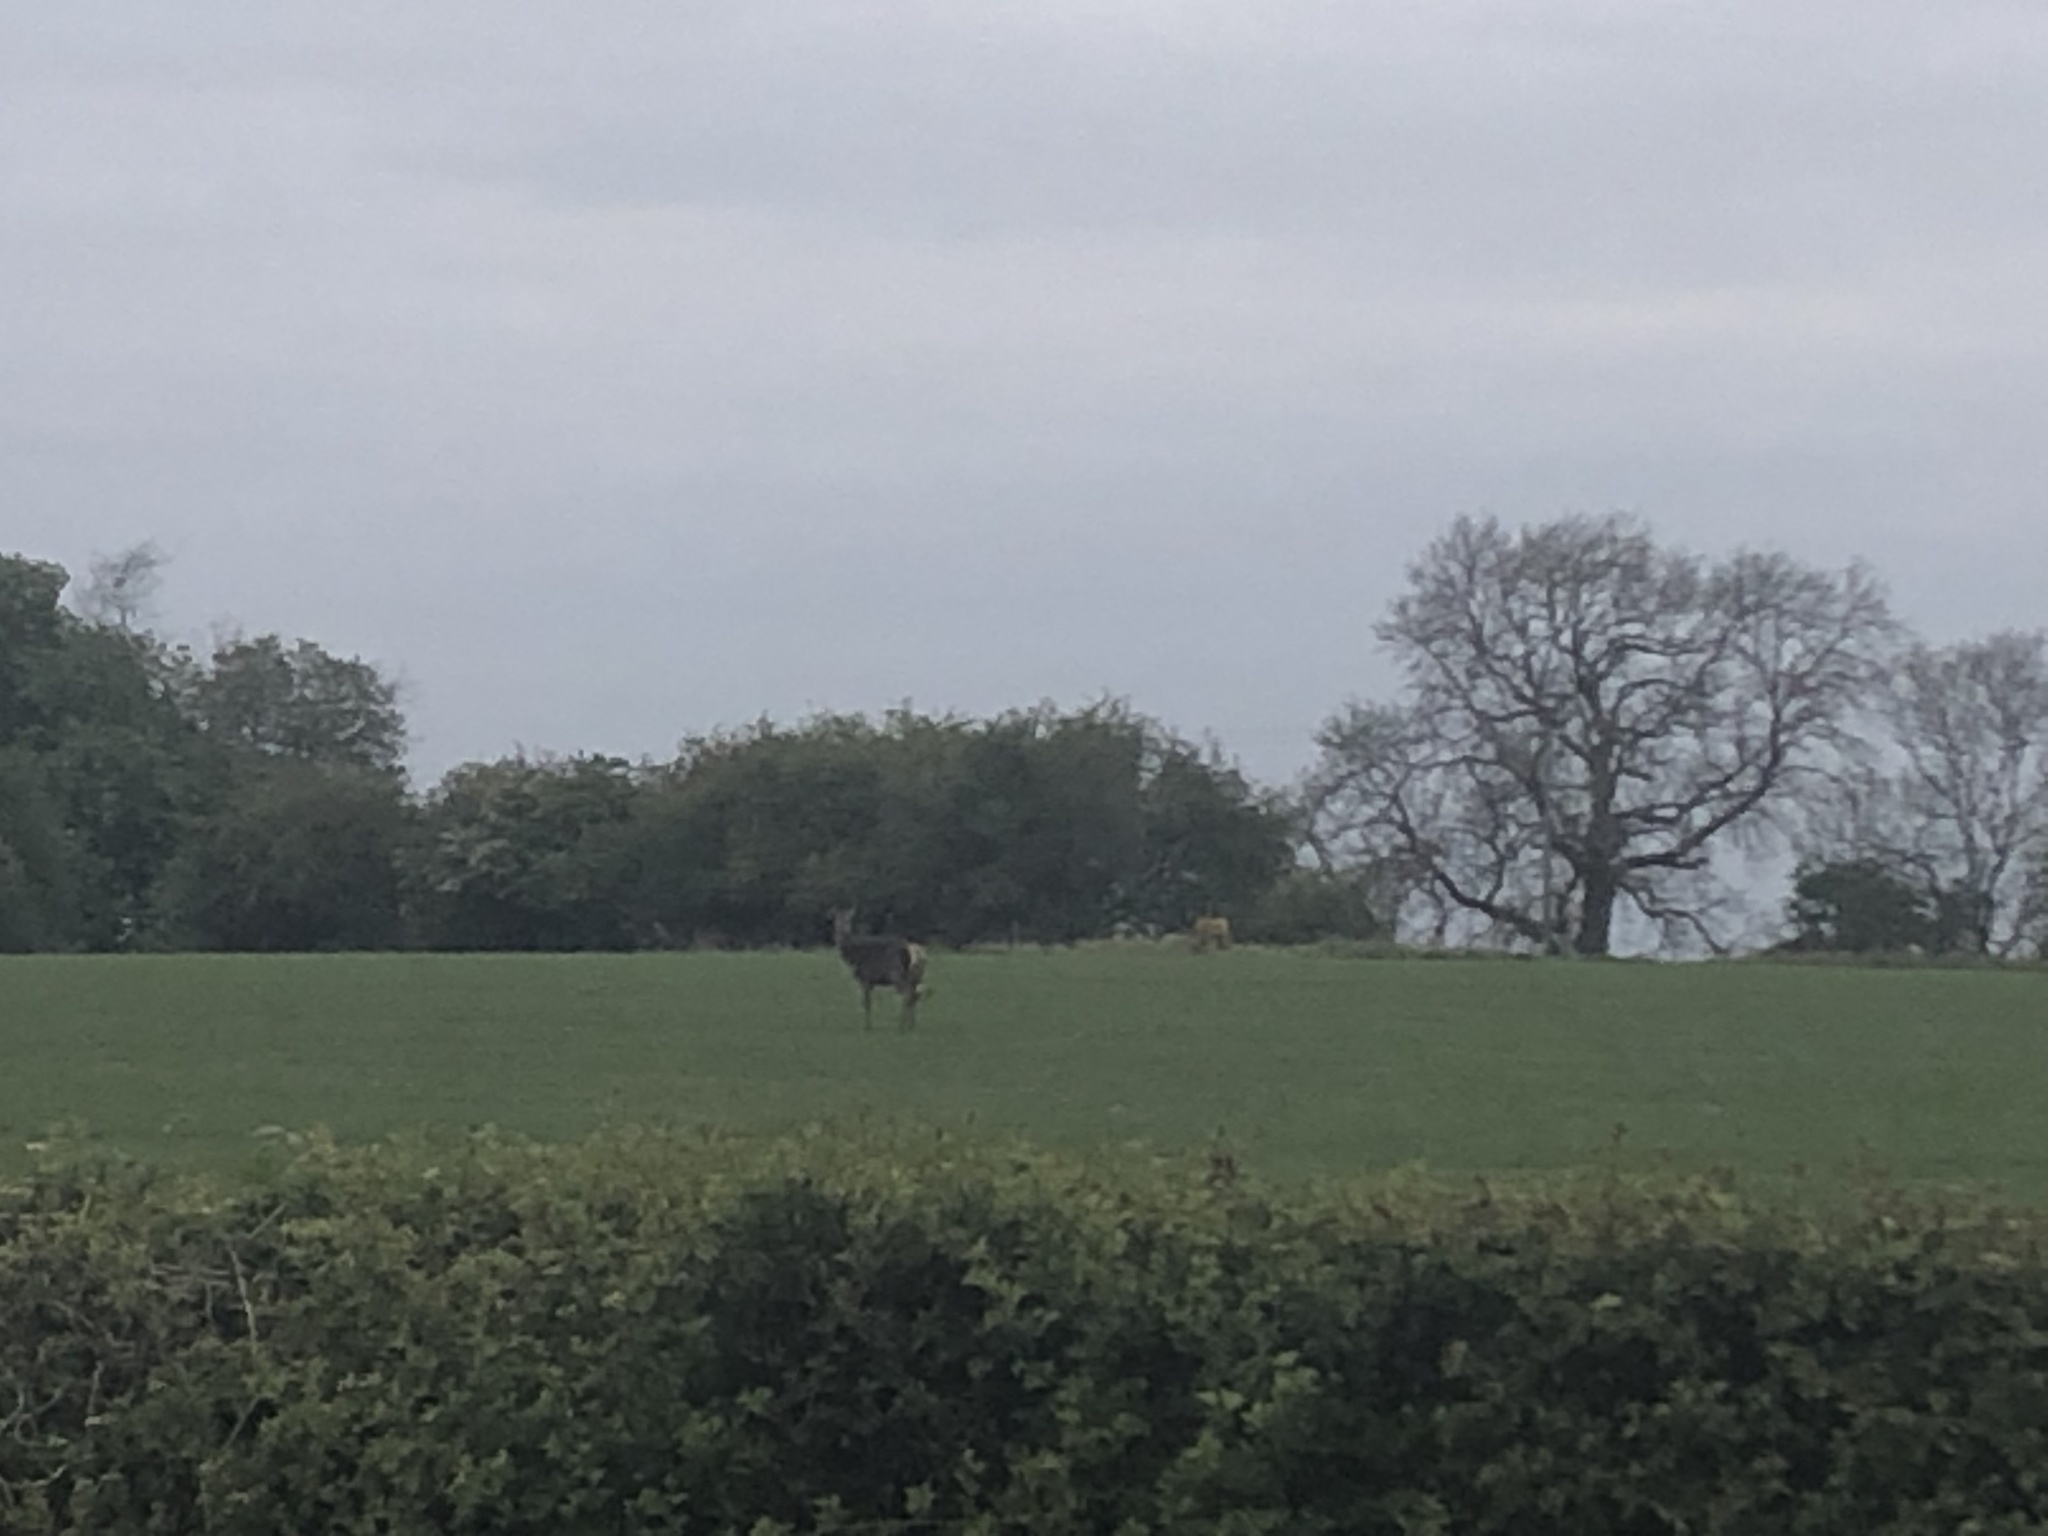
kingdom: Animalia
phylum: Chordata
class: Mammalia
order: Artiodactyla
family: Cervidae
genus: Capreolus
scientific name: Capreolus capreolus
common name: Western roe deer
